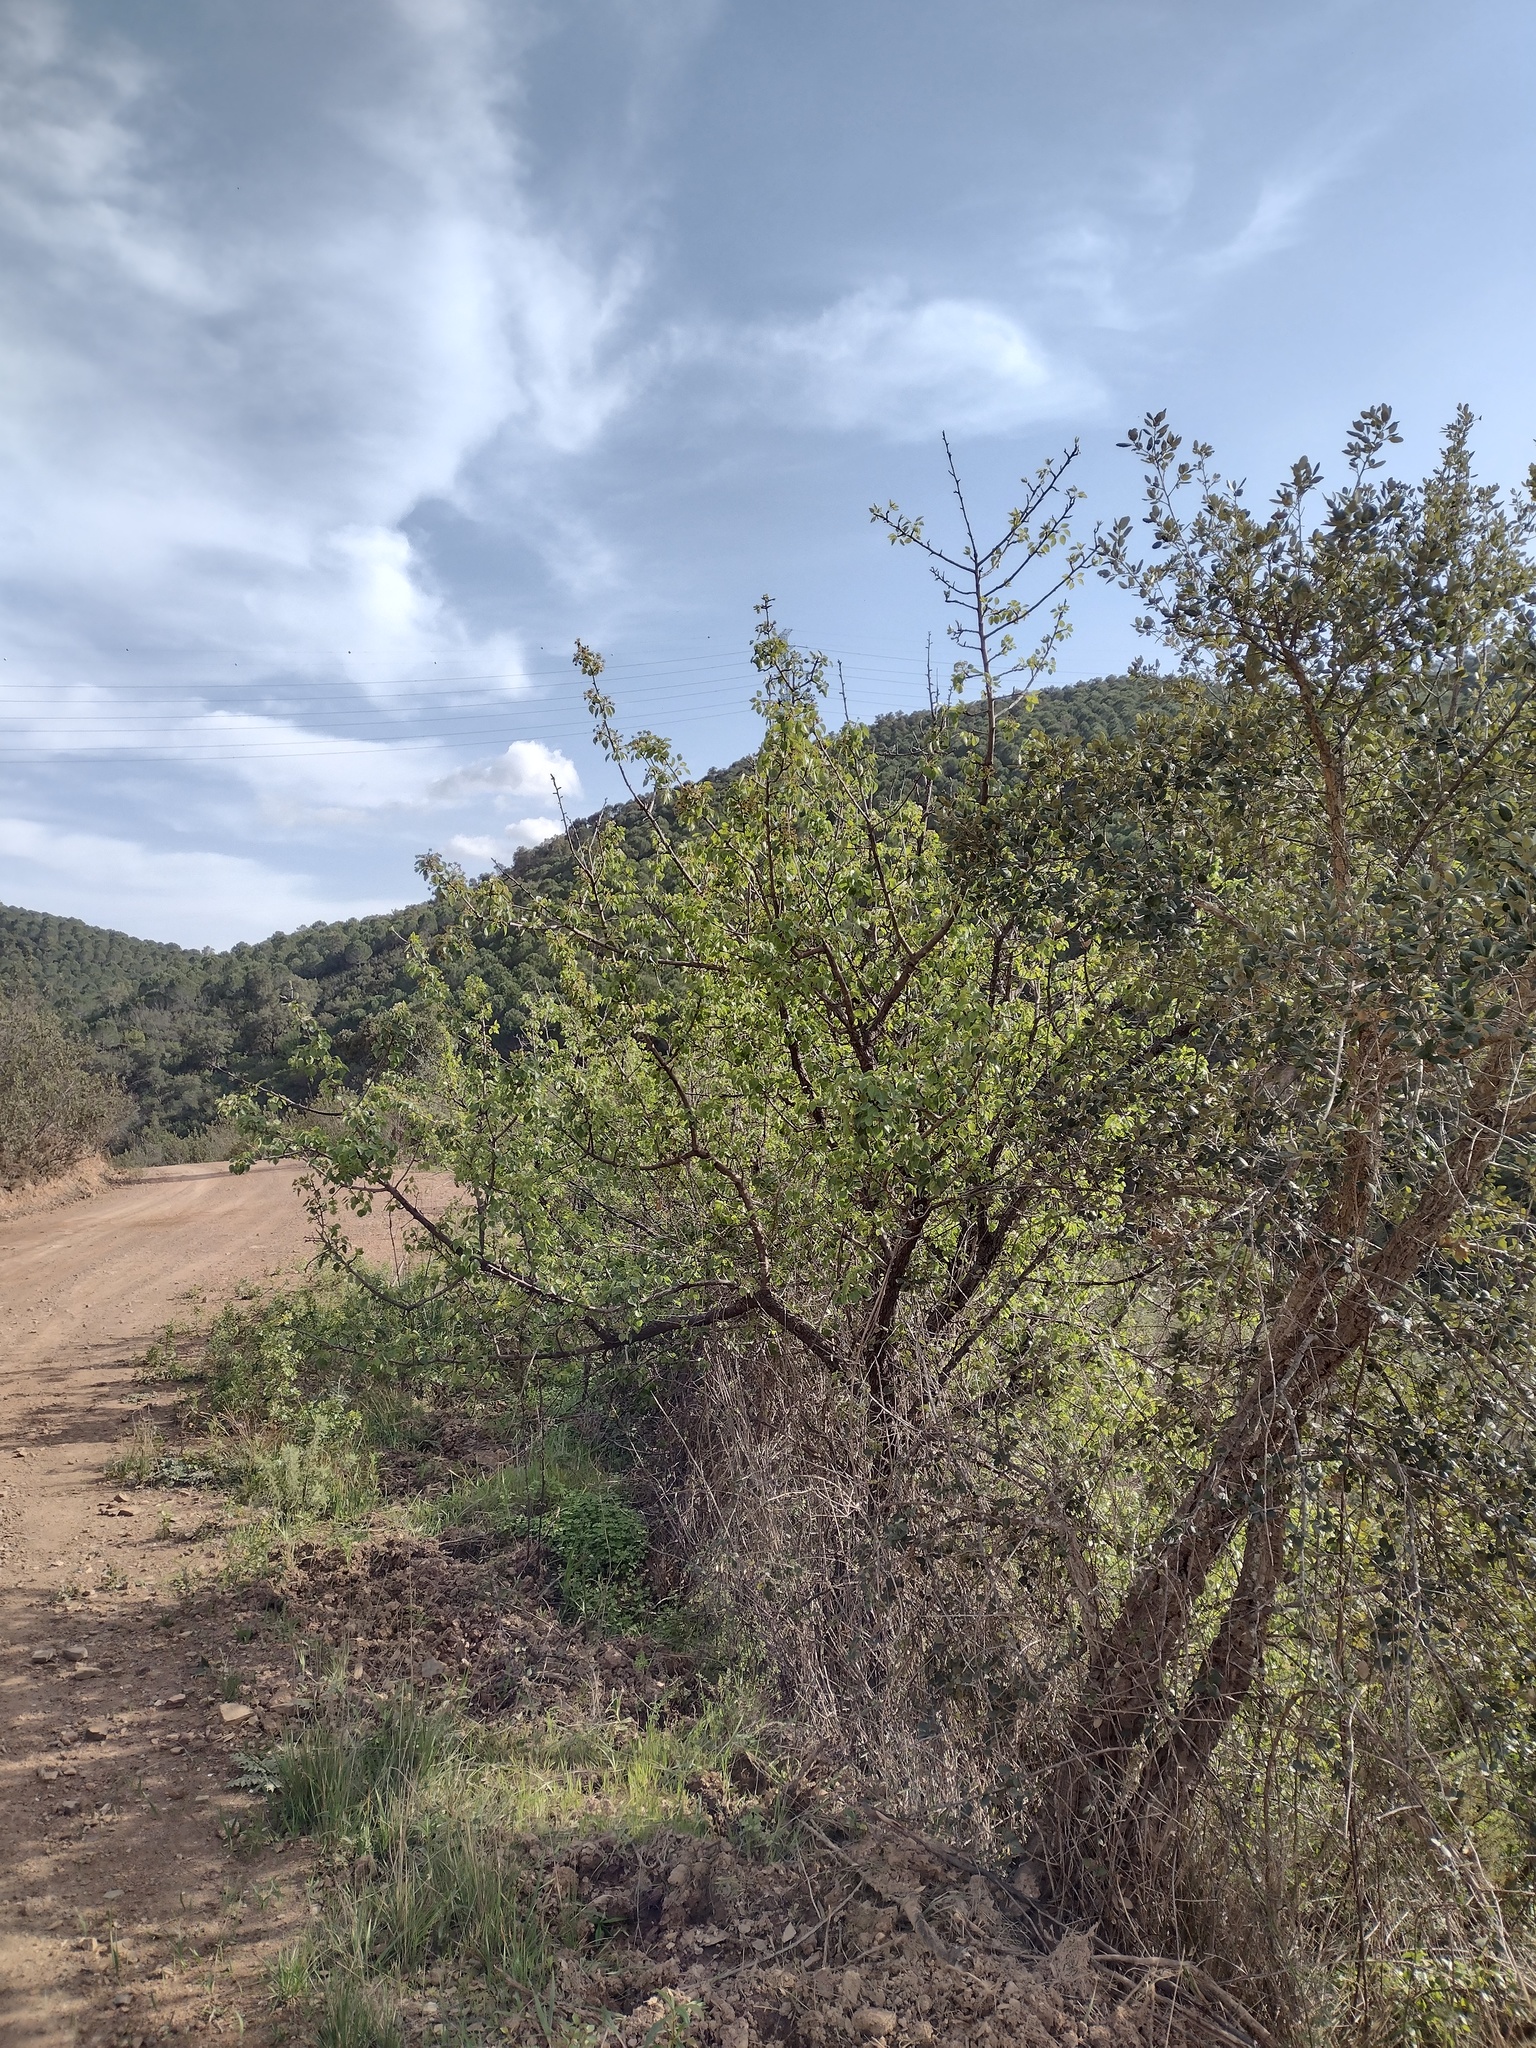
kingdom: Plantae
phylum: Tracheophyta
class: Magnoliopsida
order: Rosales
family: Rosaceae
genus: Pyrus
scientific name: Pyrus bourgaeana
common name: Iberian pear
